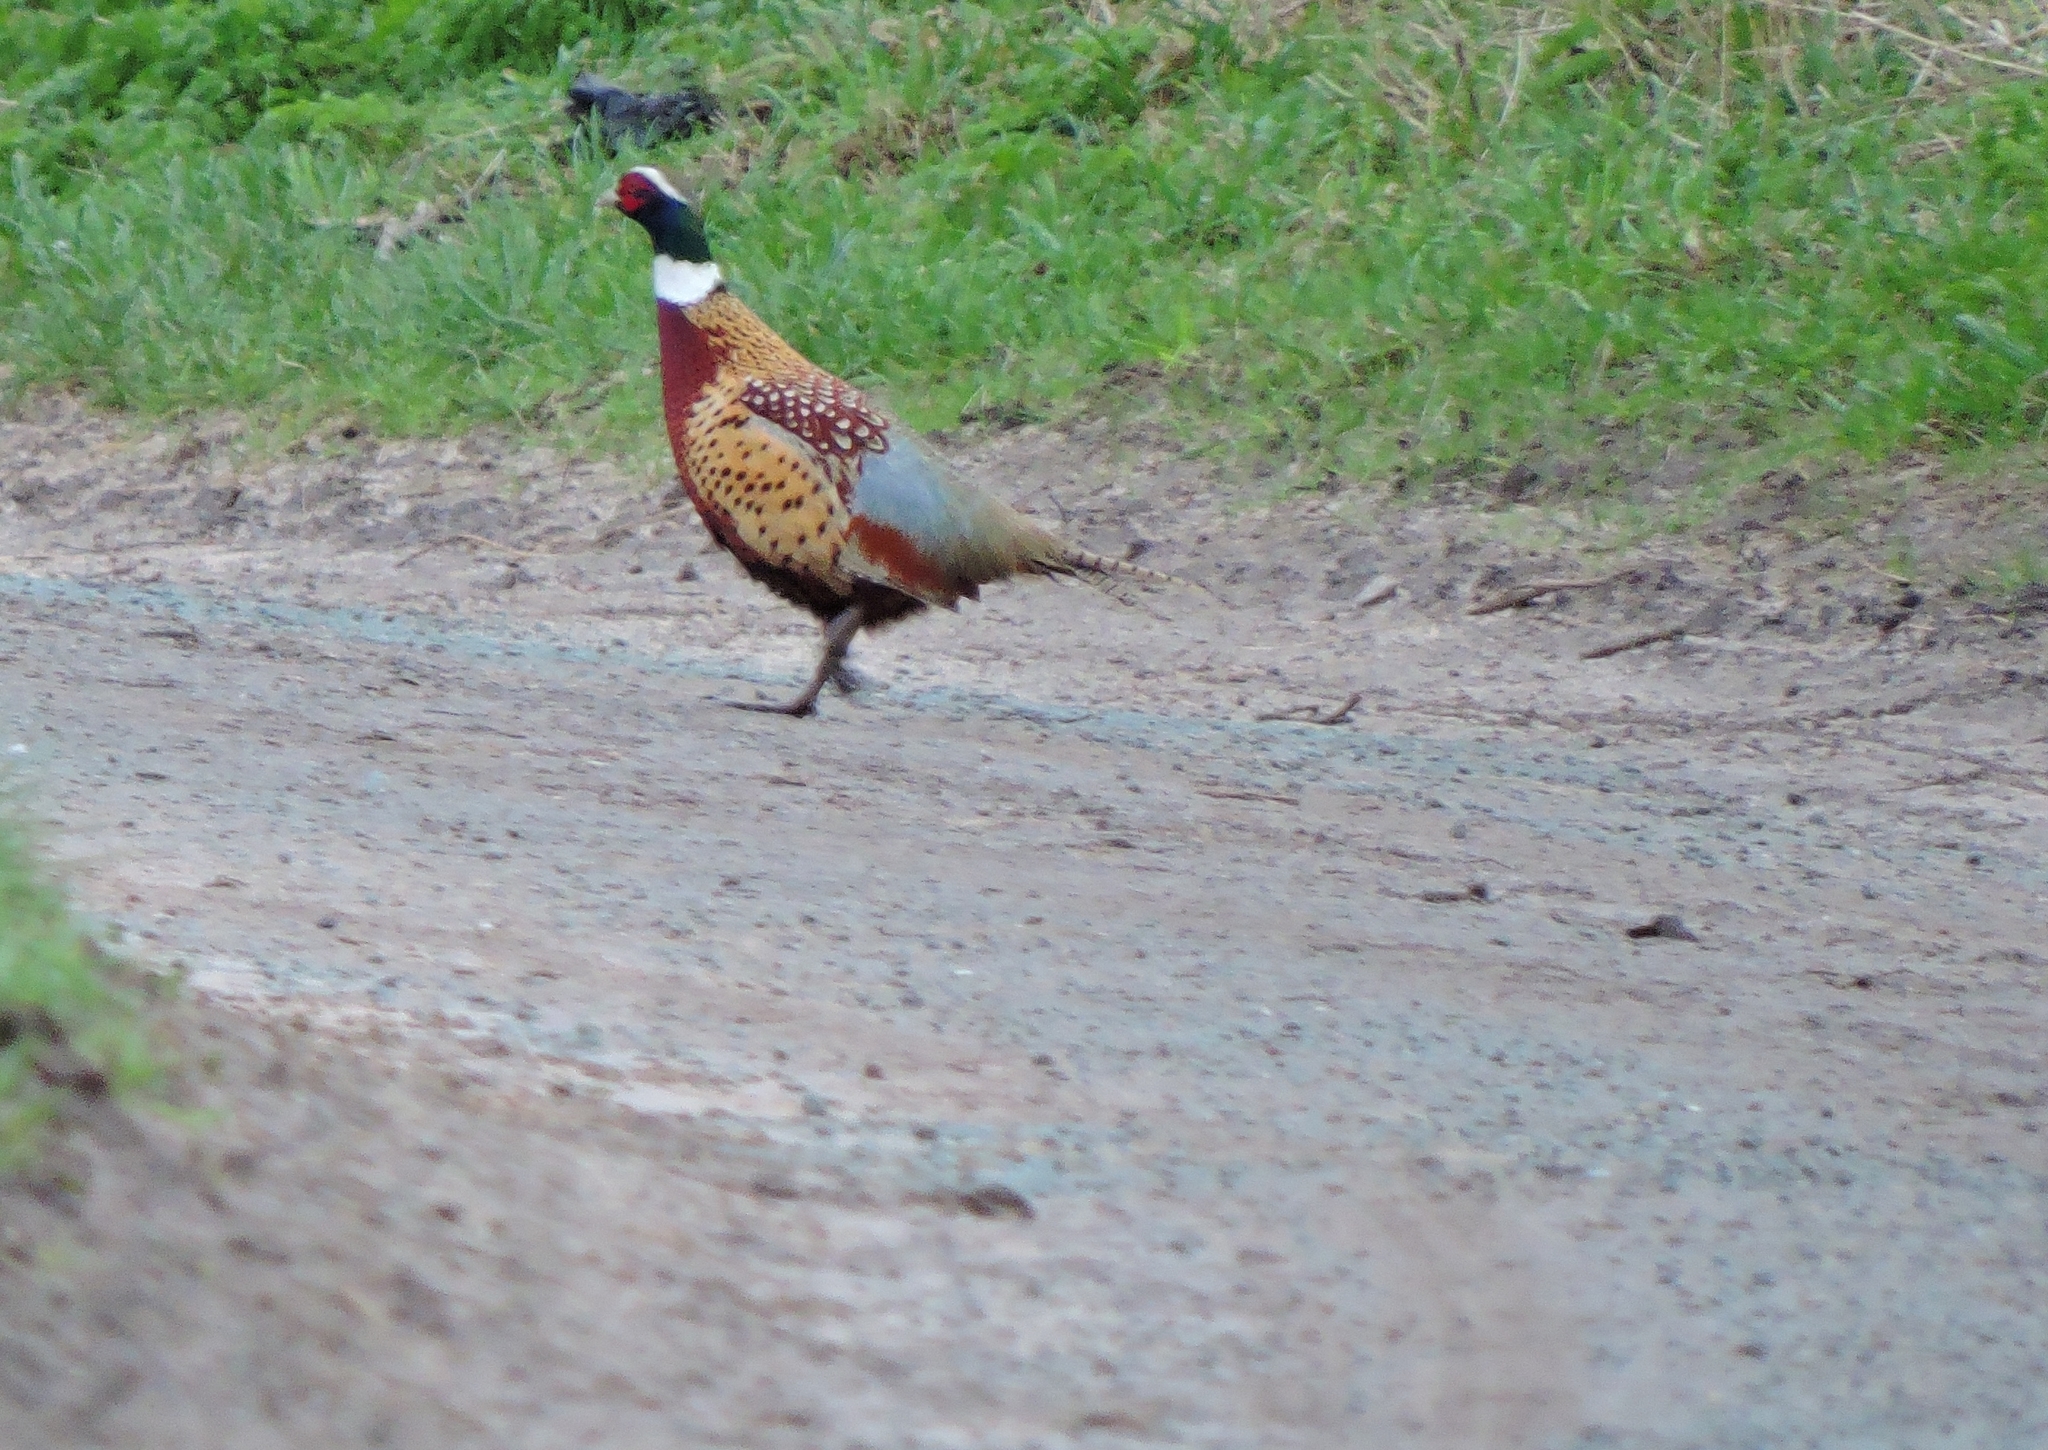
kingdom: Animalia
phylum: Chordata
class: Aves
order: Galliformes
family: Phasianidae
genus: Phasianus
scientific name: Phasianus colchicus
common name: Common pheasant
